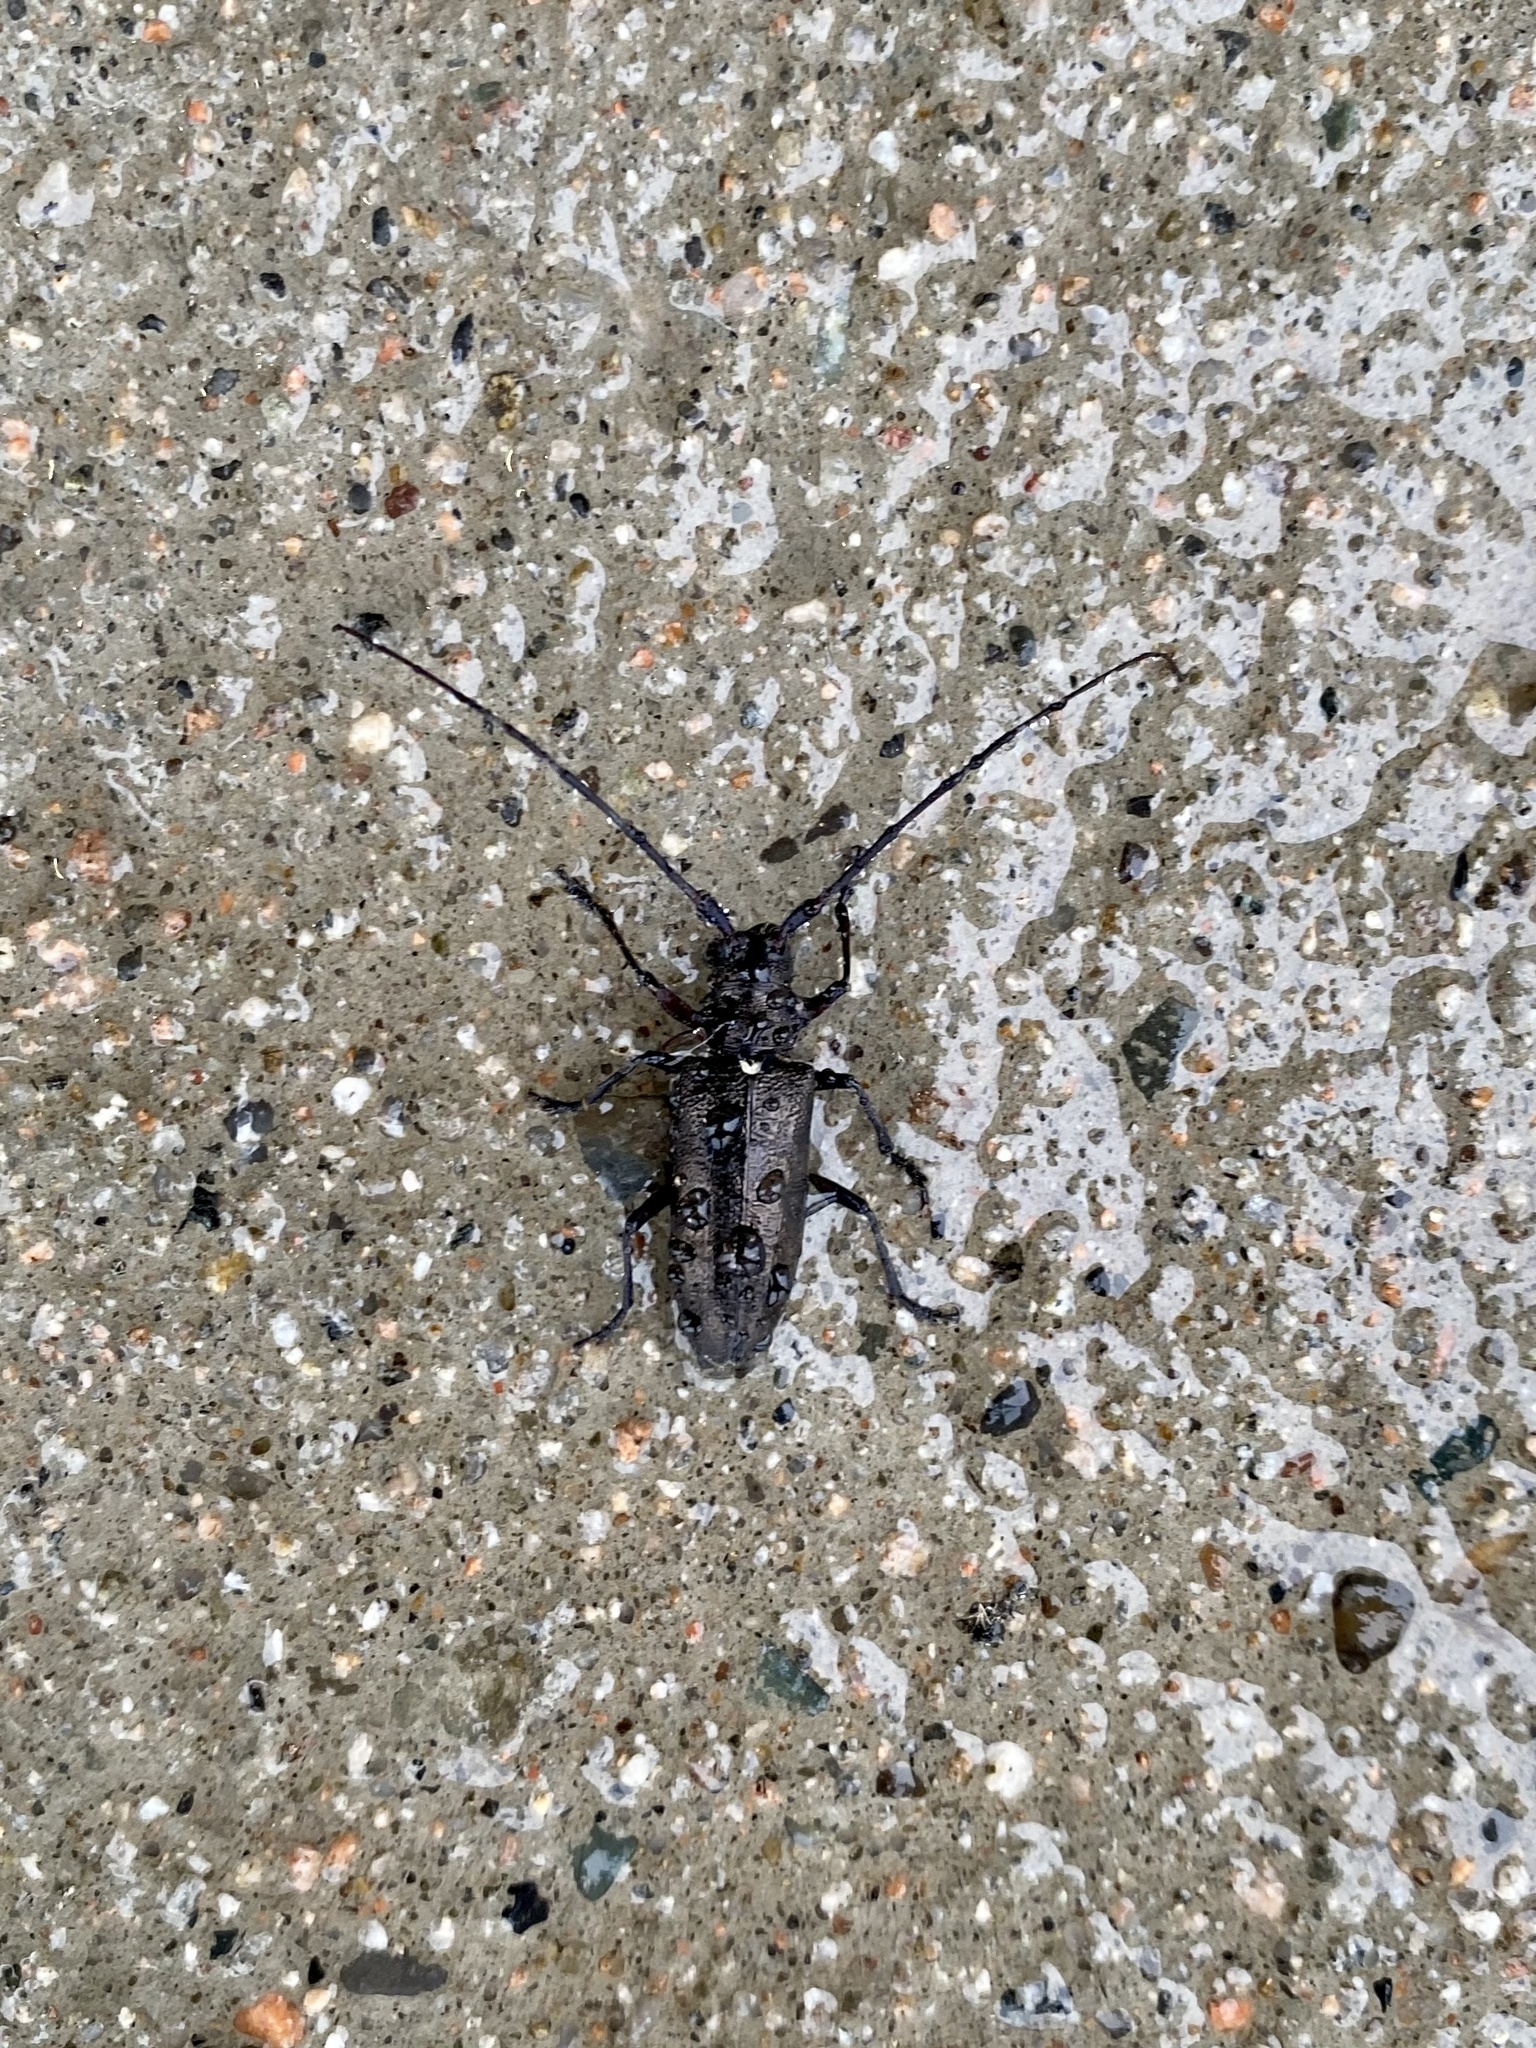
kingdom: Animalia
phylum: Arthropoda
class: Insecta
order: Coleoptera
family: Cerambycidae
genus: Monochamus
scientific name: Monochamus scutellatus
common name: White-spotted sawyer beetle
